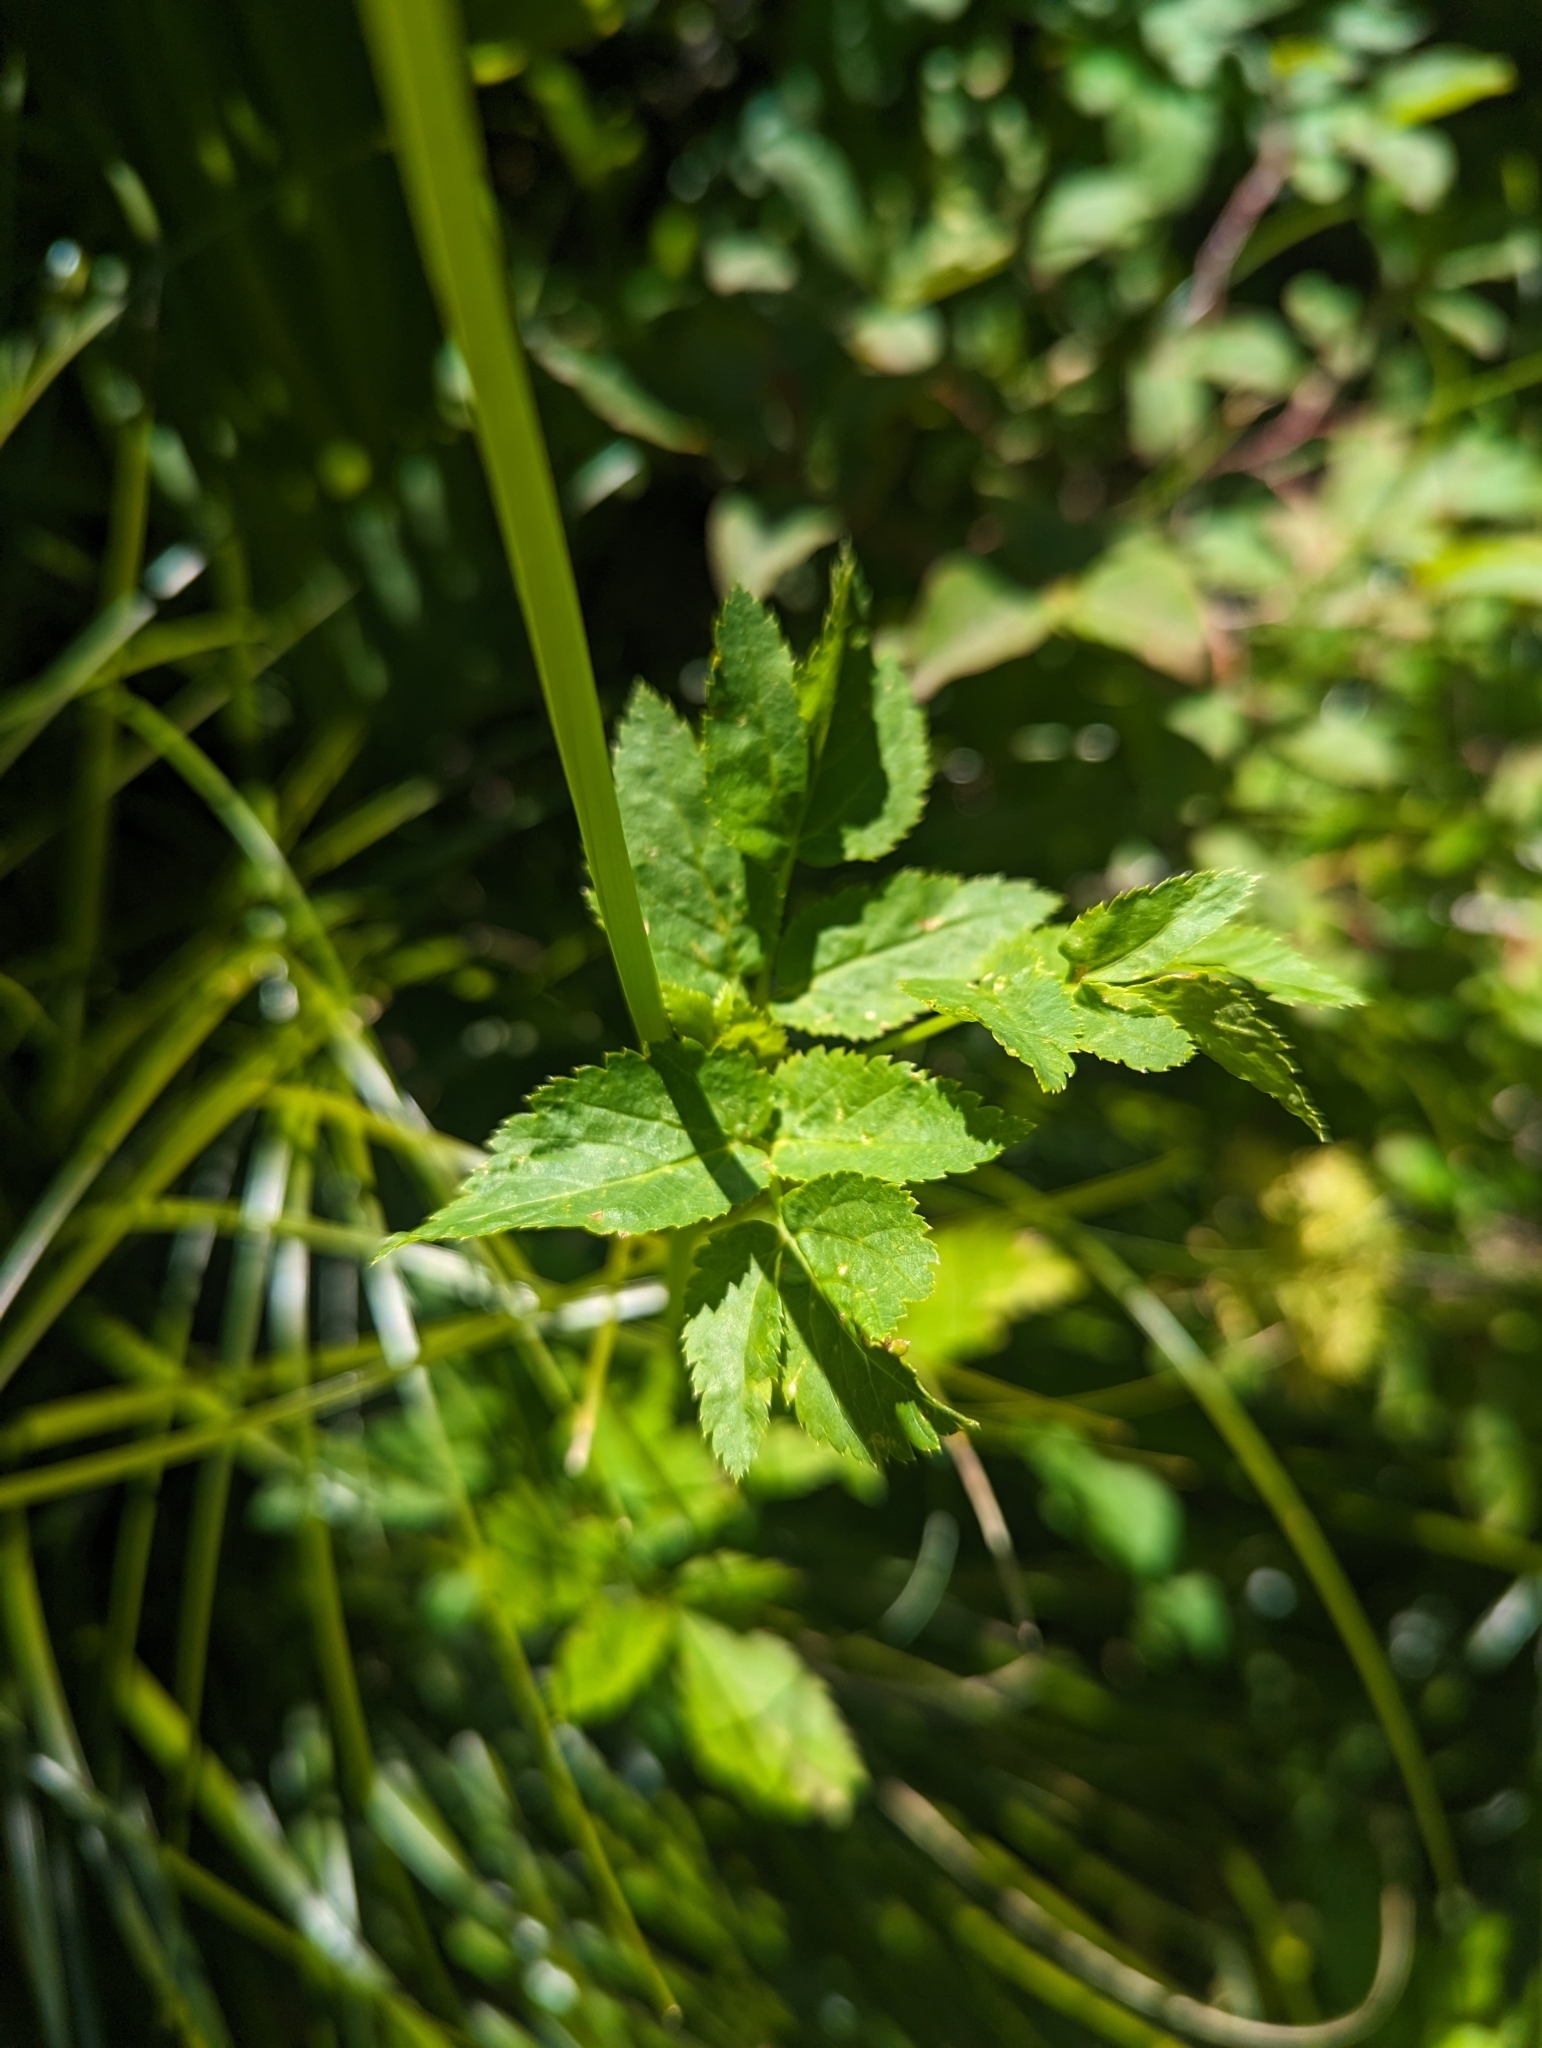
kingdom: Plantae
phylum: Tracheophyta
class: Magnoliopsida
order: Apiales
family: Apiaceae
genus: Angelica
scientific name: Angelica dawsonii
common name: Dawson's angelica
